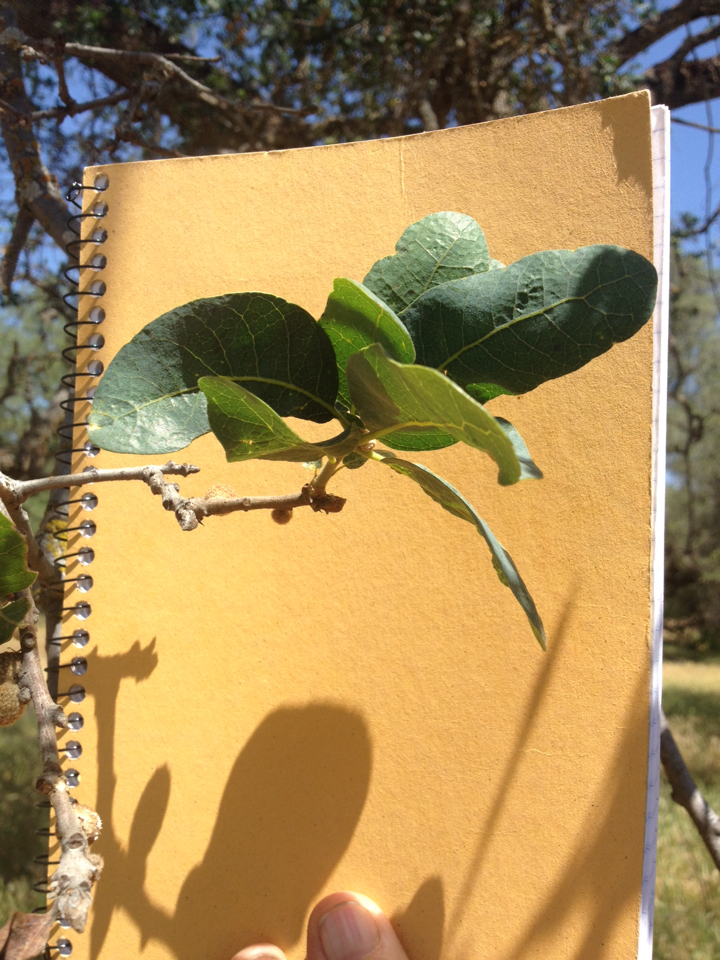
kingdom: Plantae
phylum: Tracheophyta
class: Magnoliopsida
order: Fagales
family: Fagaceae
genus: Quercus
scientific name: Quercus douglasii
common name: Blue oak
